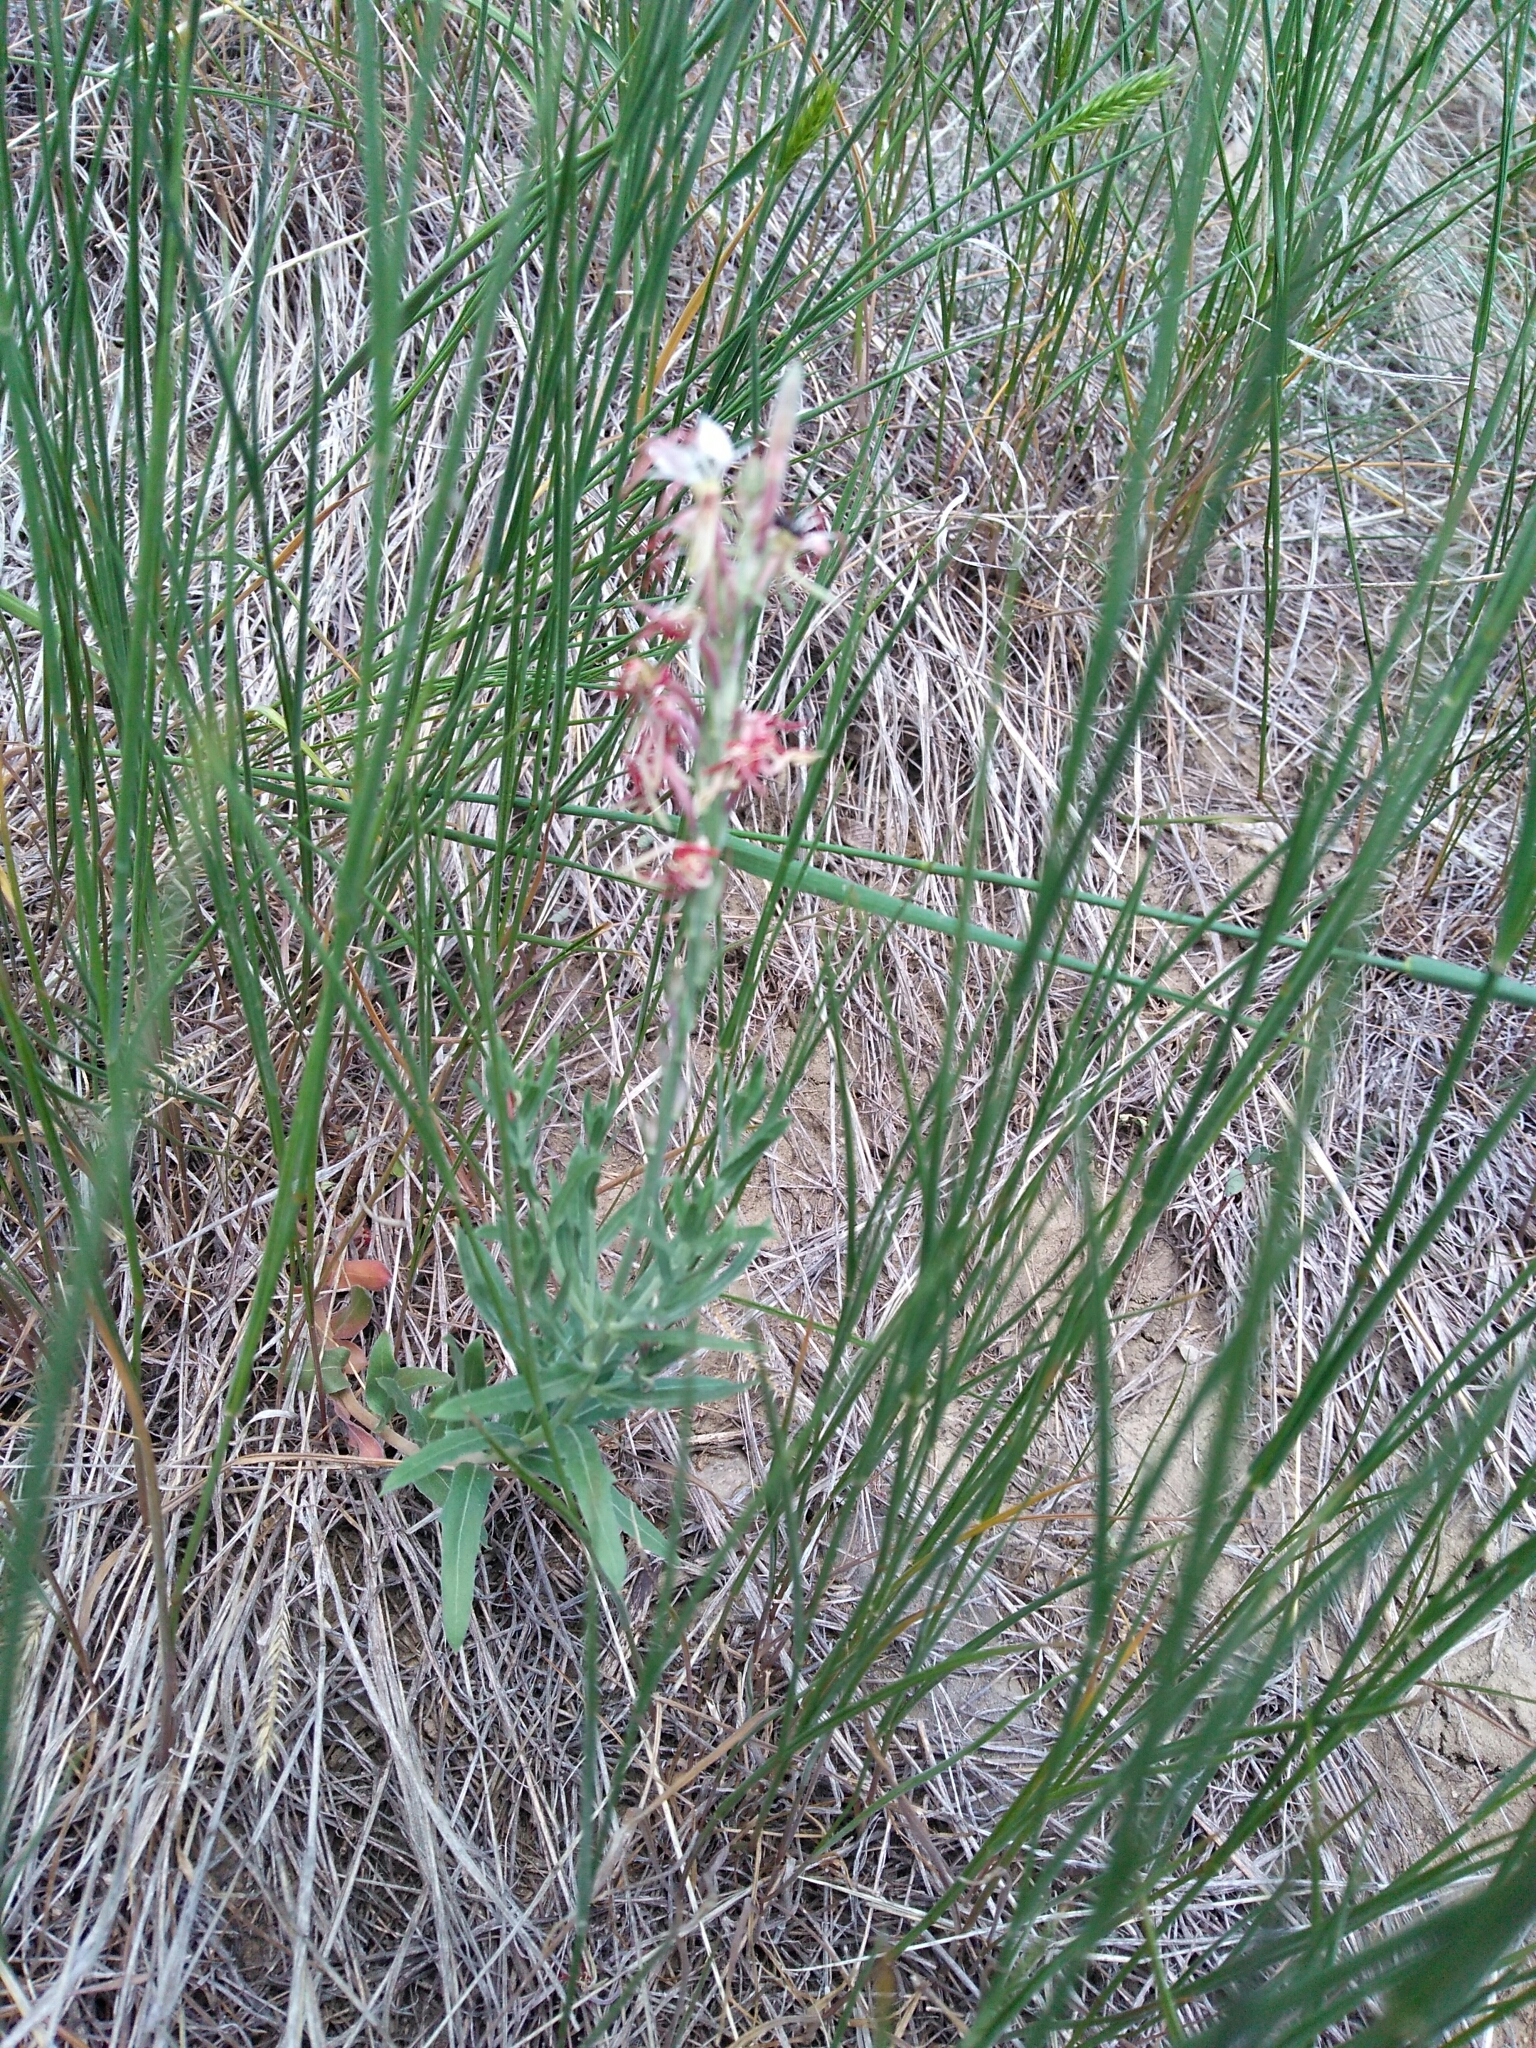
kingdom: Plantae
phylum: Tracheophyta
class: Magnoliopsida
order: Myrtales
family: Onagraceae
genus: Oenothera
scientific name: Oenothera suffrutescens
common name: Scarlet beeblossom
